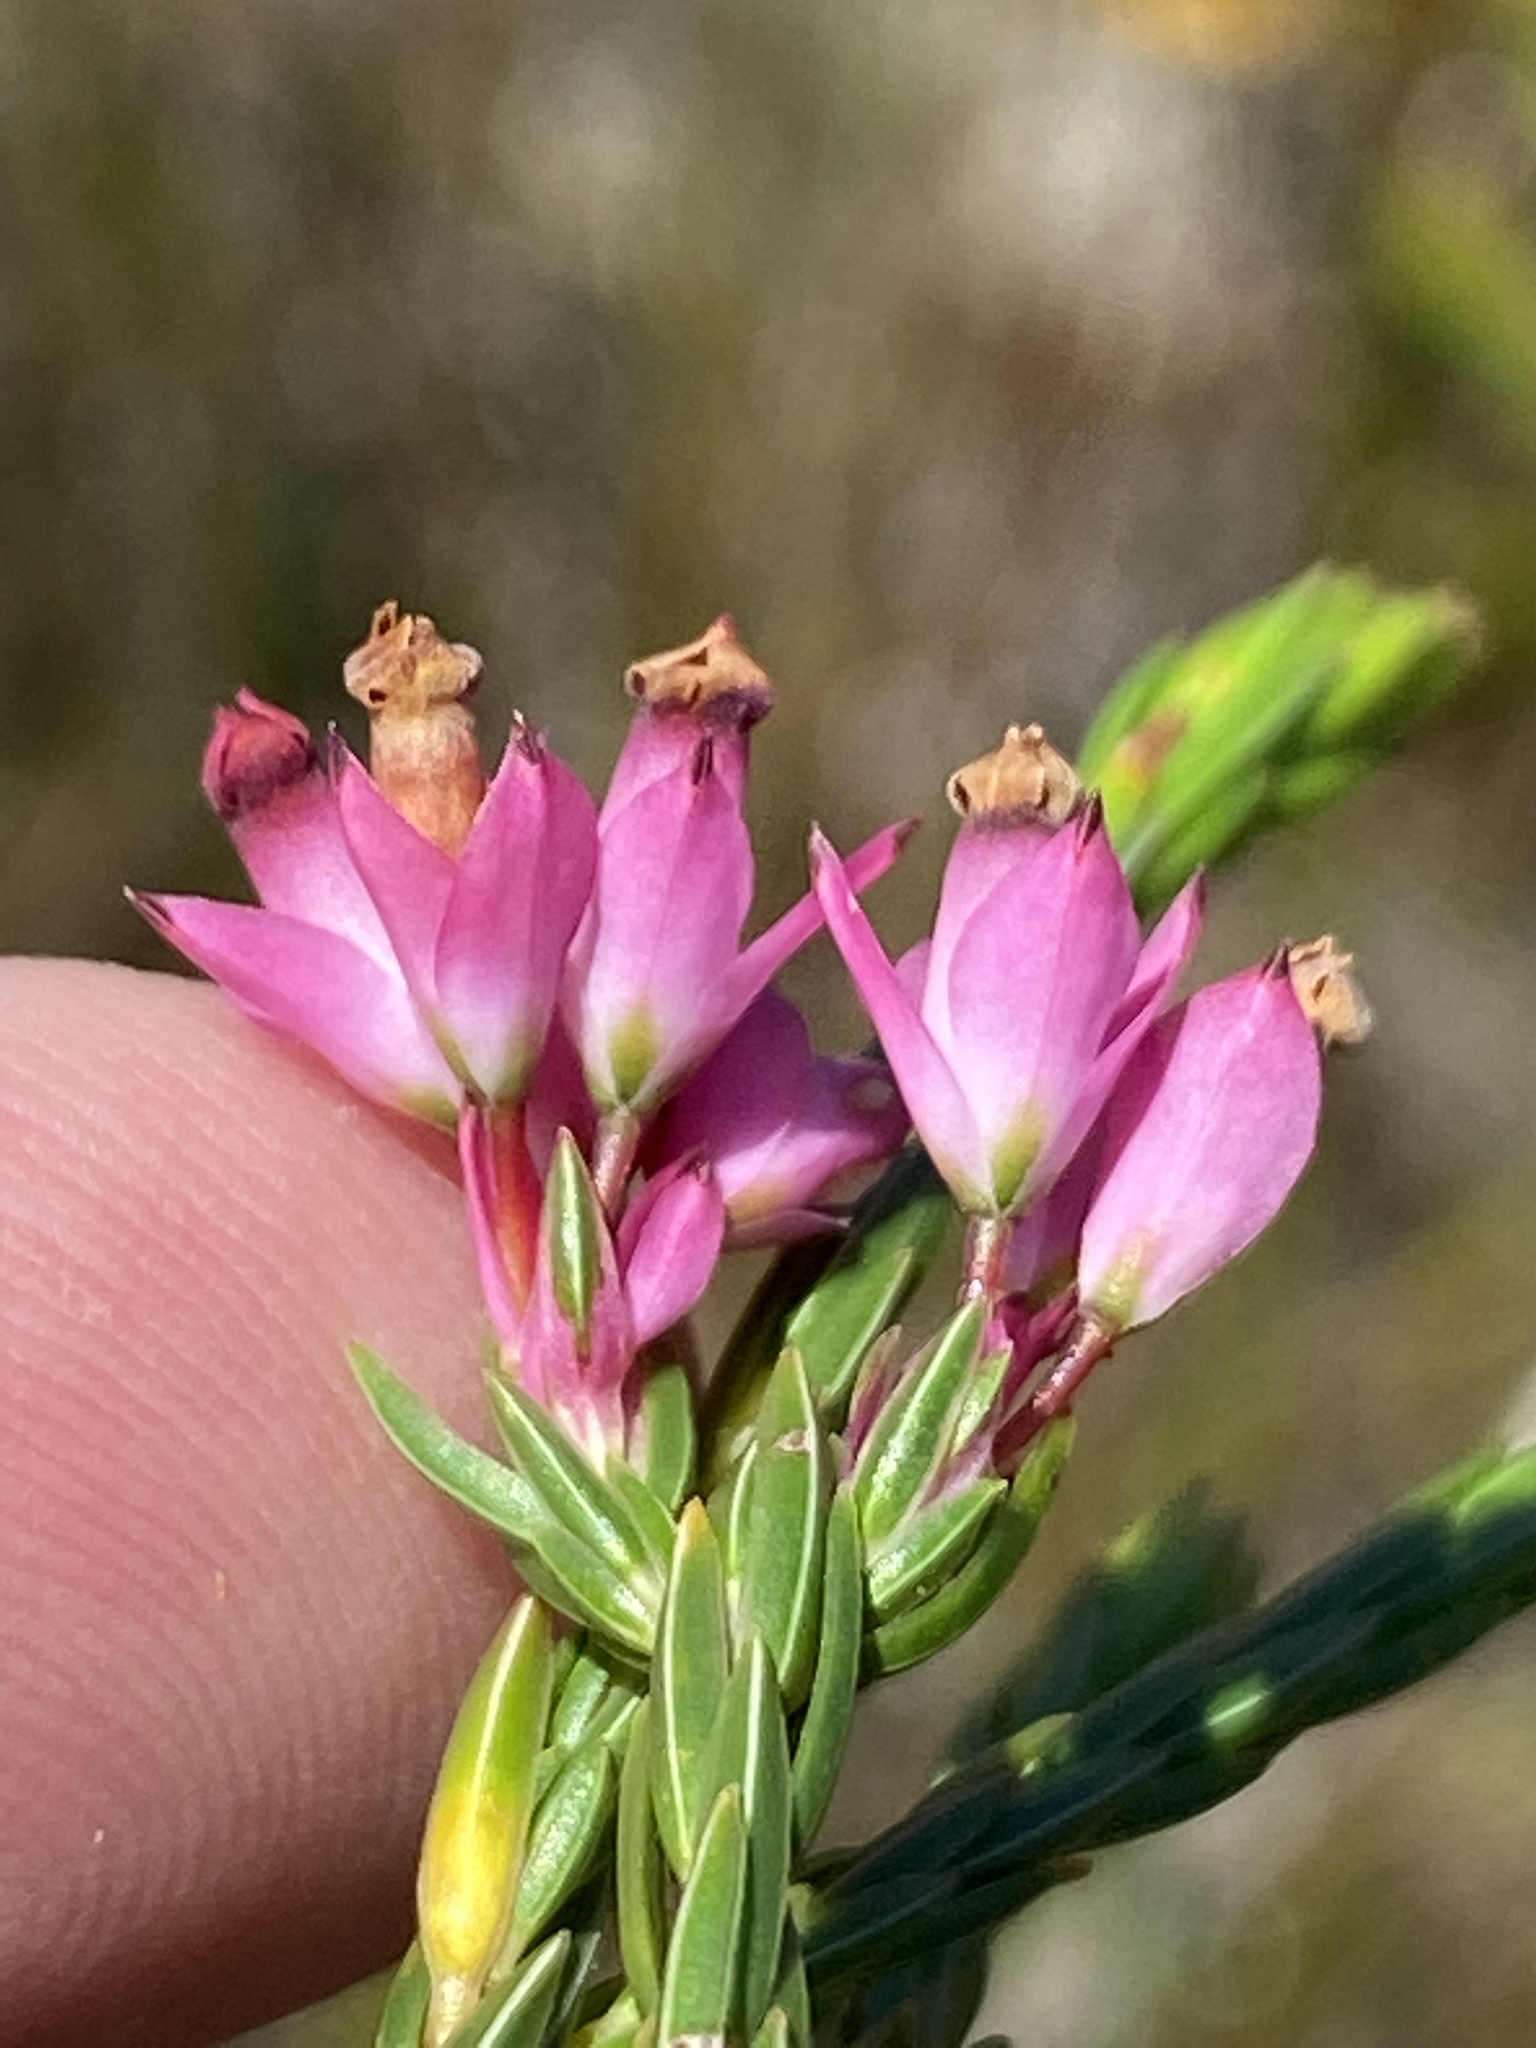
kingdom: Plantae
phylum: Tracheophyta
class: Magnoliopsida
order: Ericales
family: Ericaceae
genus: Erica
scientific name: Erica taxifolia
